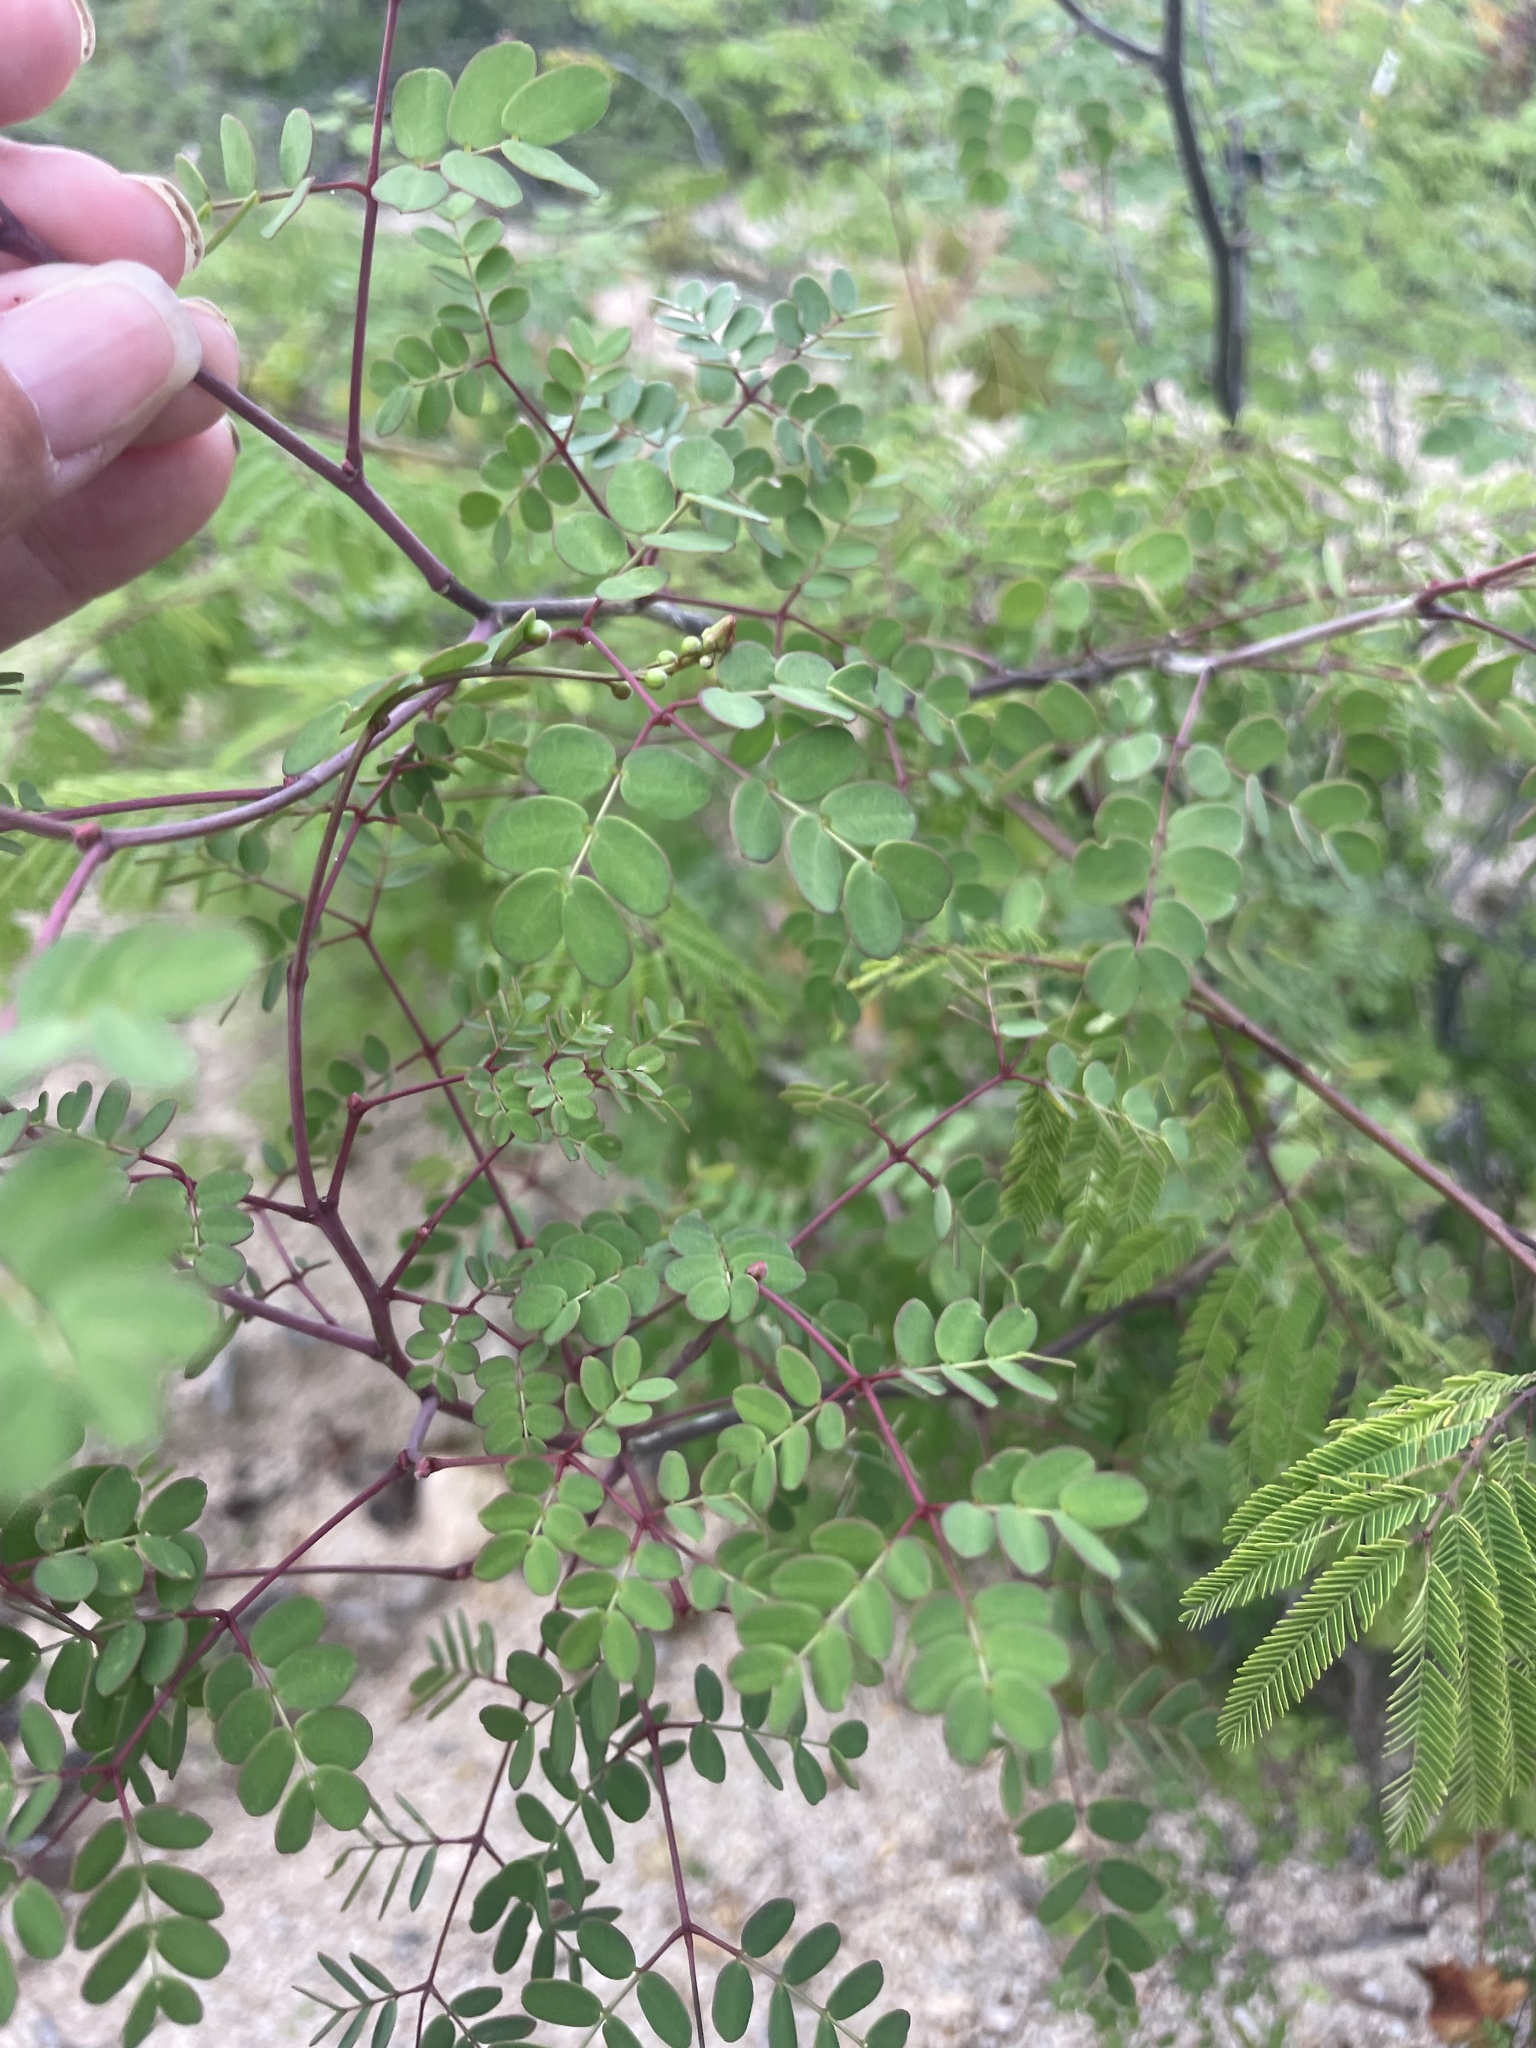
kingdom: Plantae
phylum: Tracheophyta
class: Magnoliopsida
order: Fabales
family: Fabaceae
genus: Erythrostemon
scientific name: Erythrostemon pannosus
